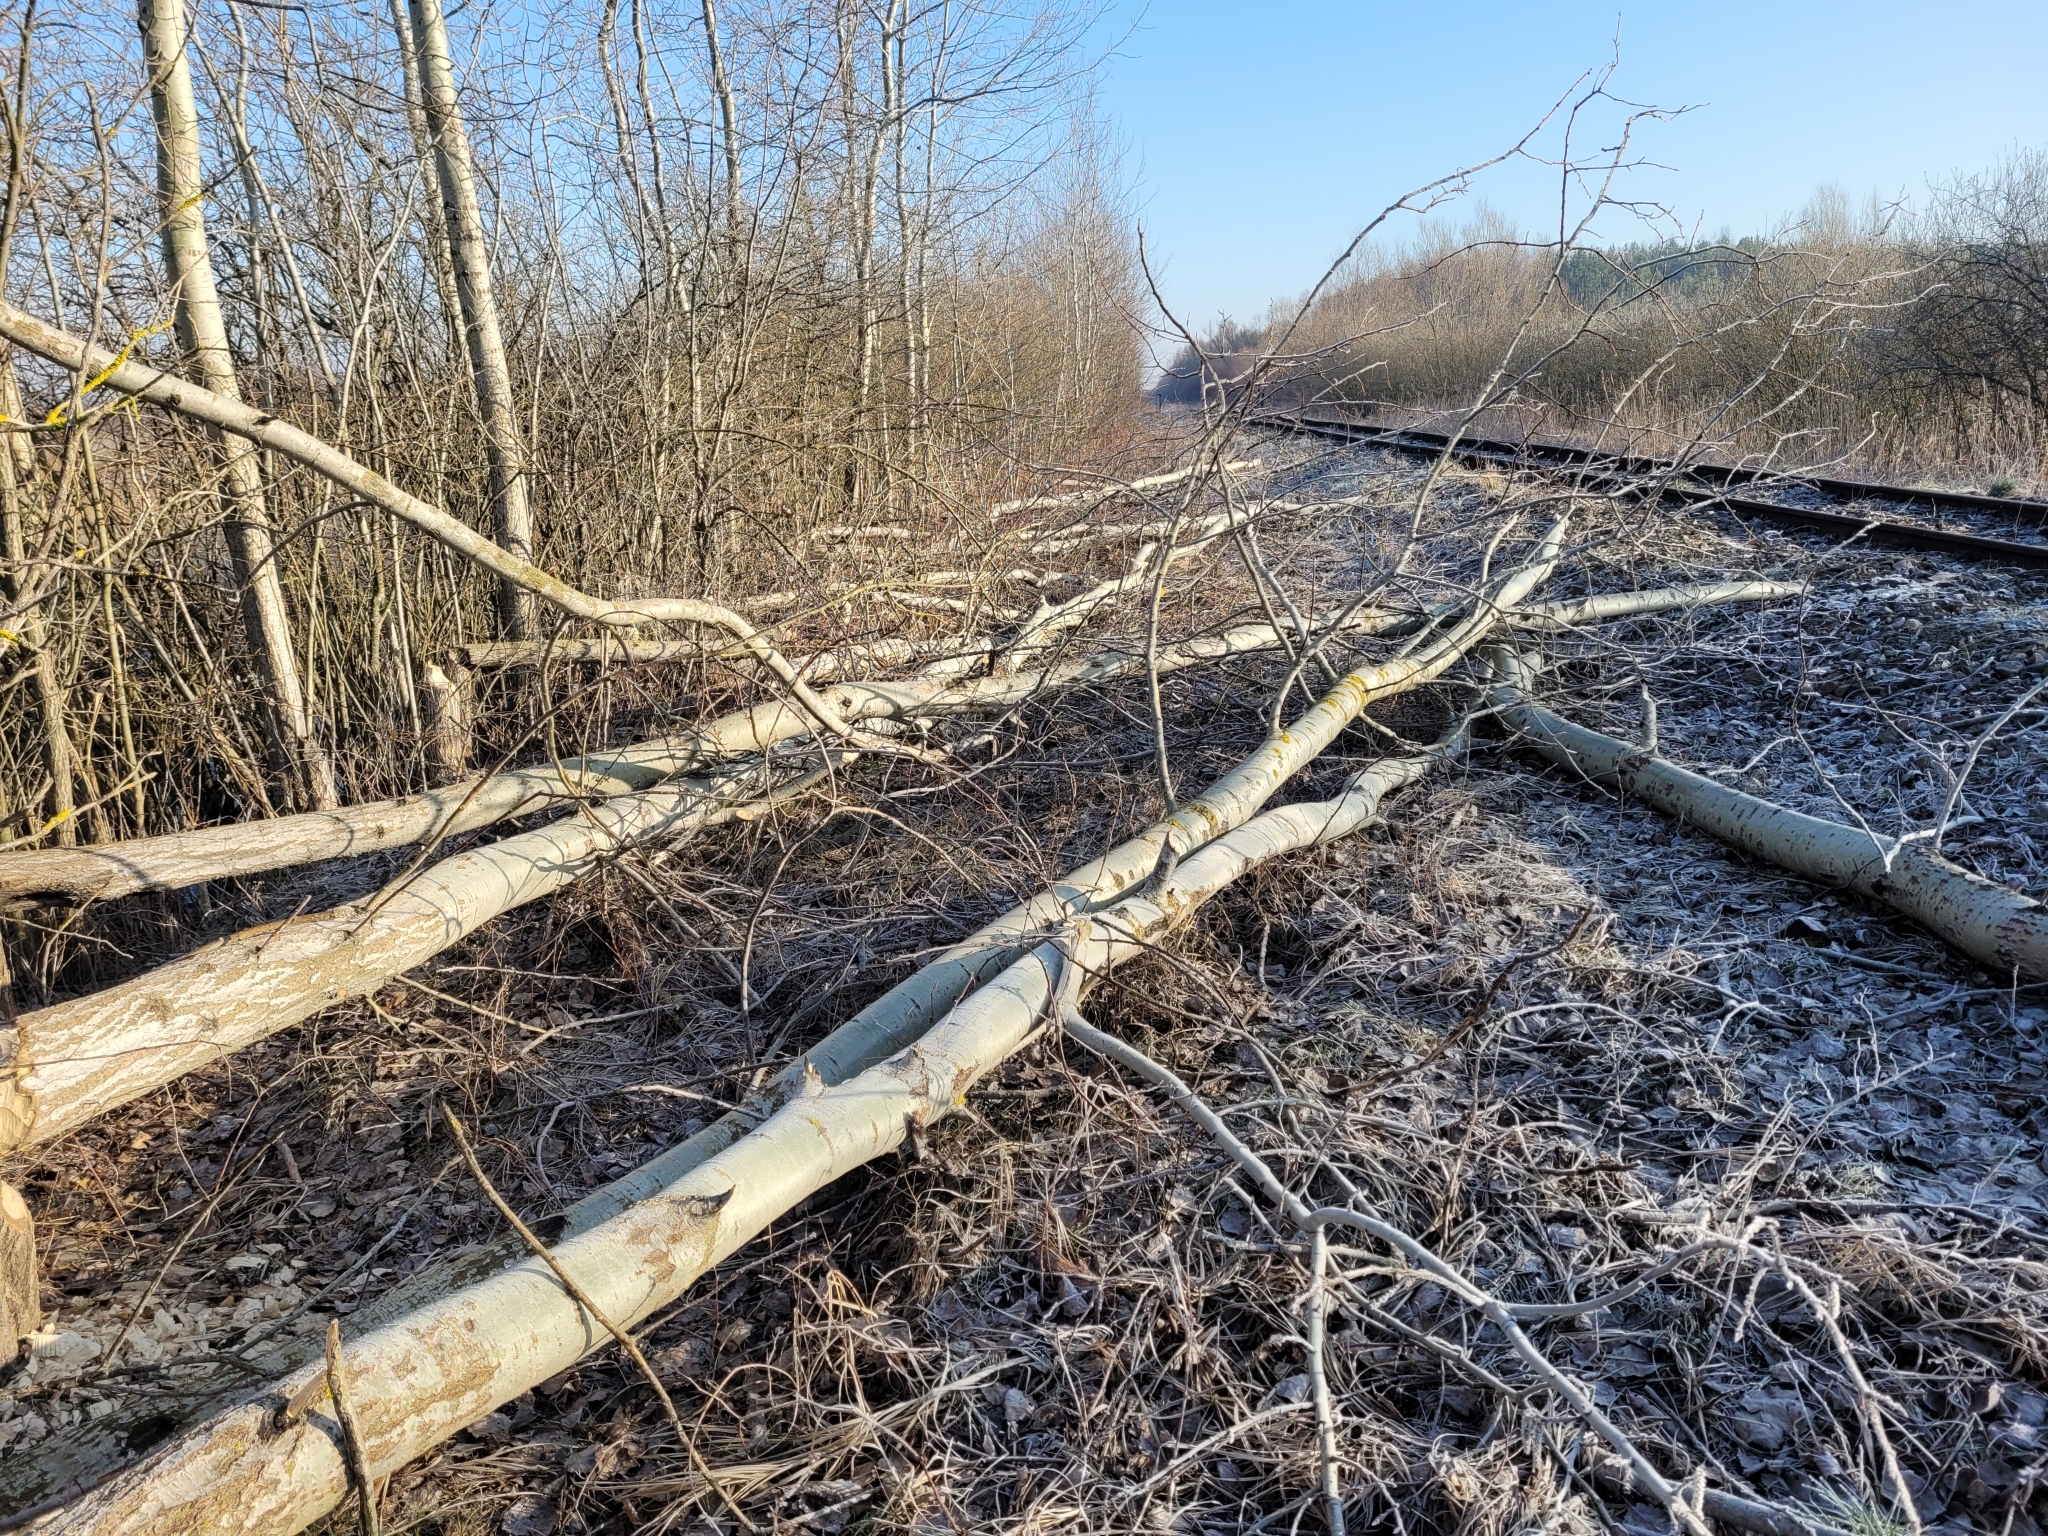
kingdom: Animalia
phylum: Chordata
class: Mammalia
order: Rodentia
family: Castoridae
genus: Castor
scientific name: Castor fiber
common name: Eurasian beaver
